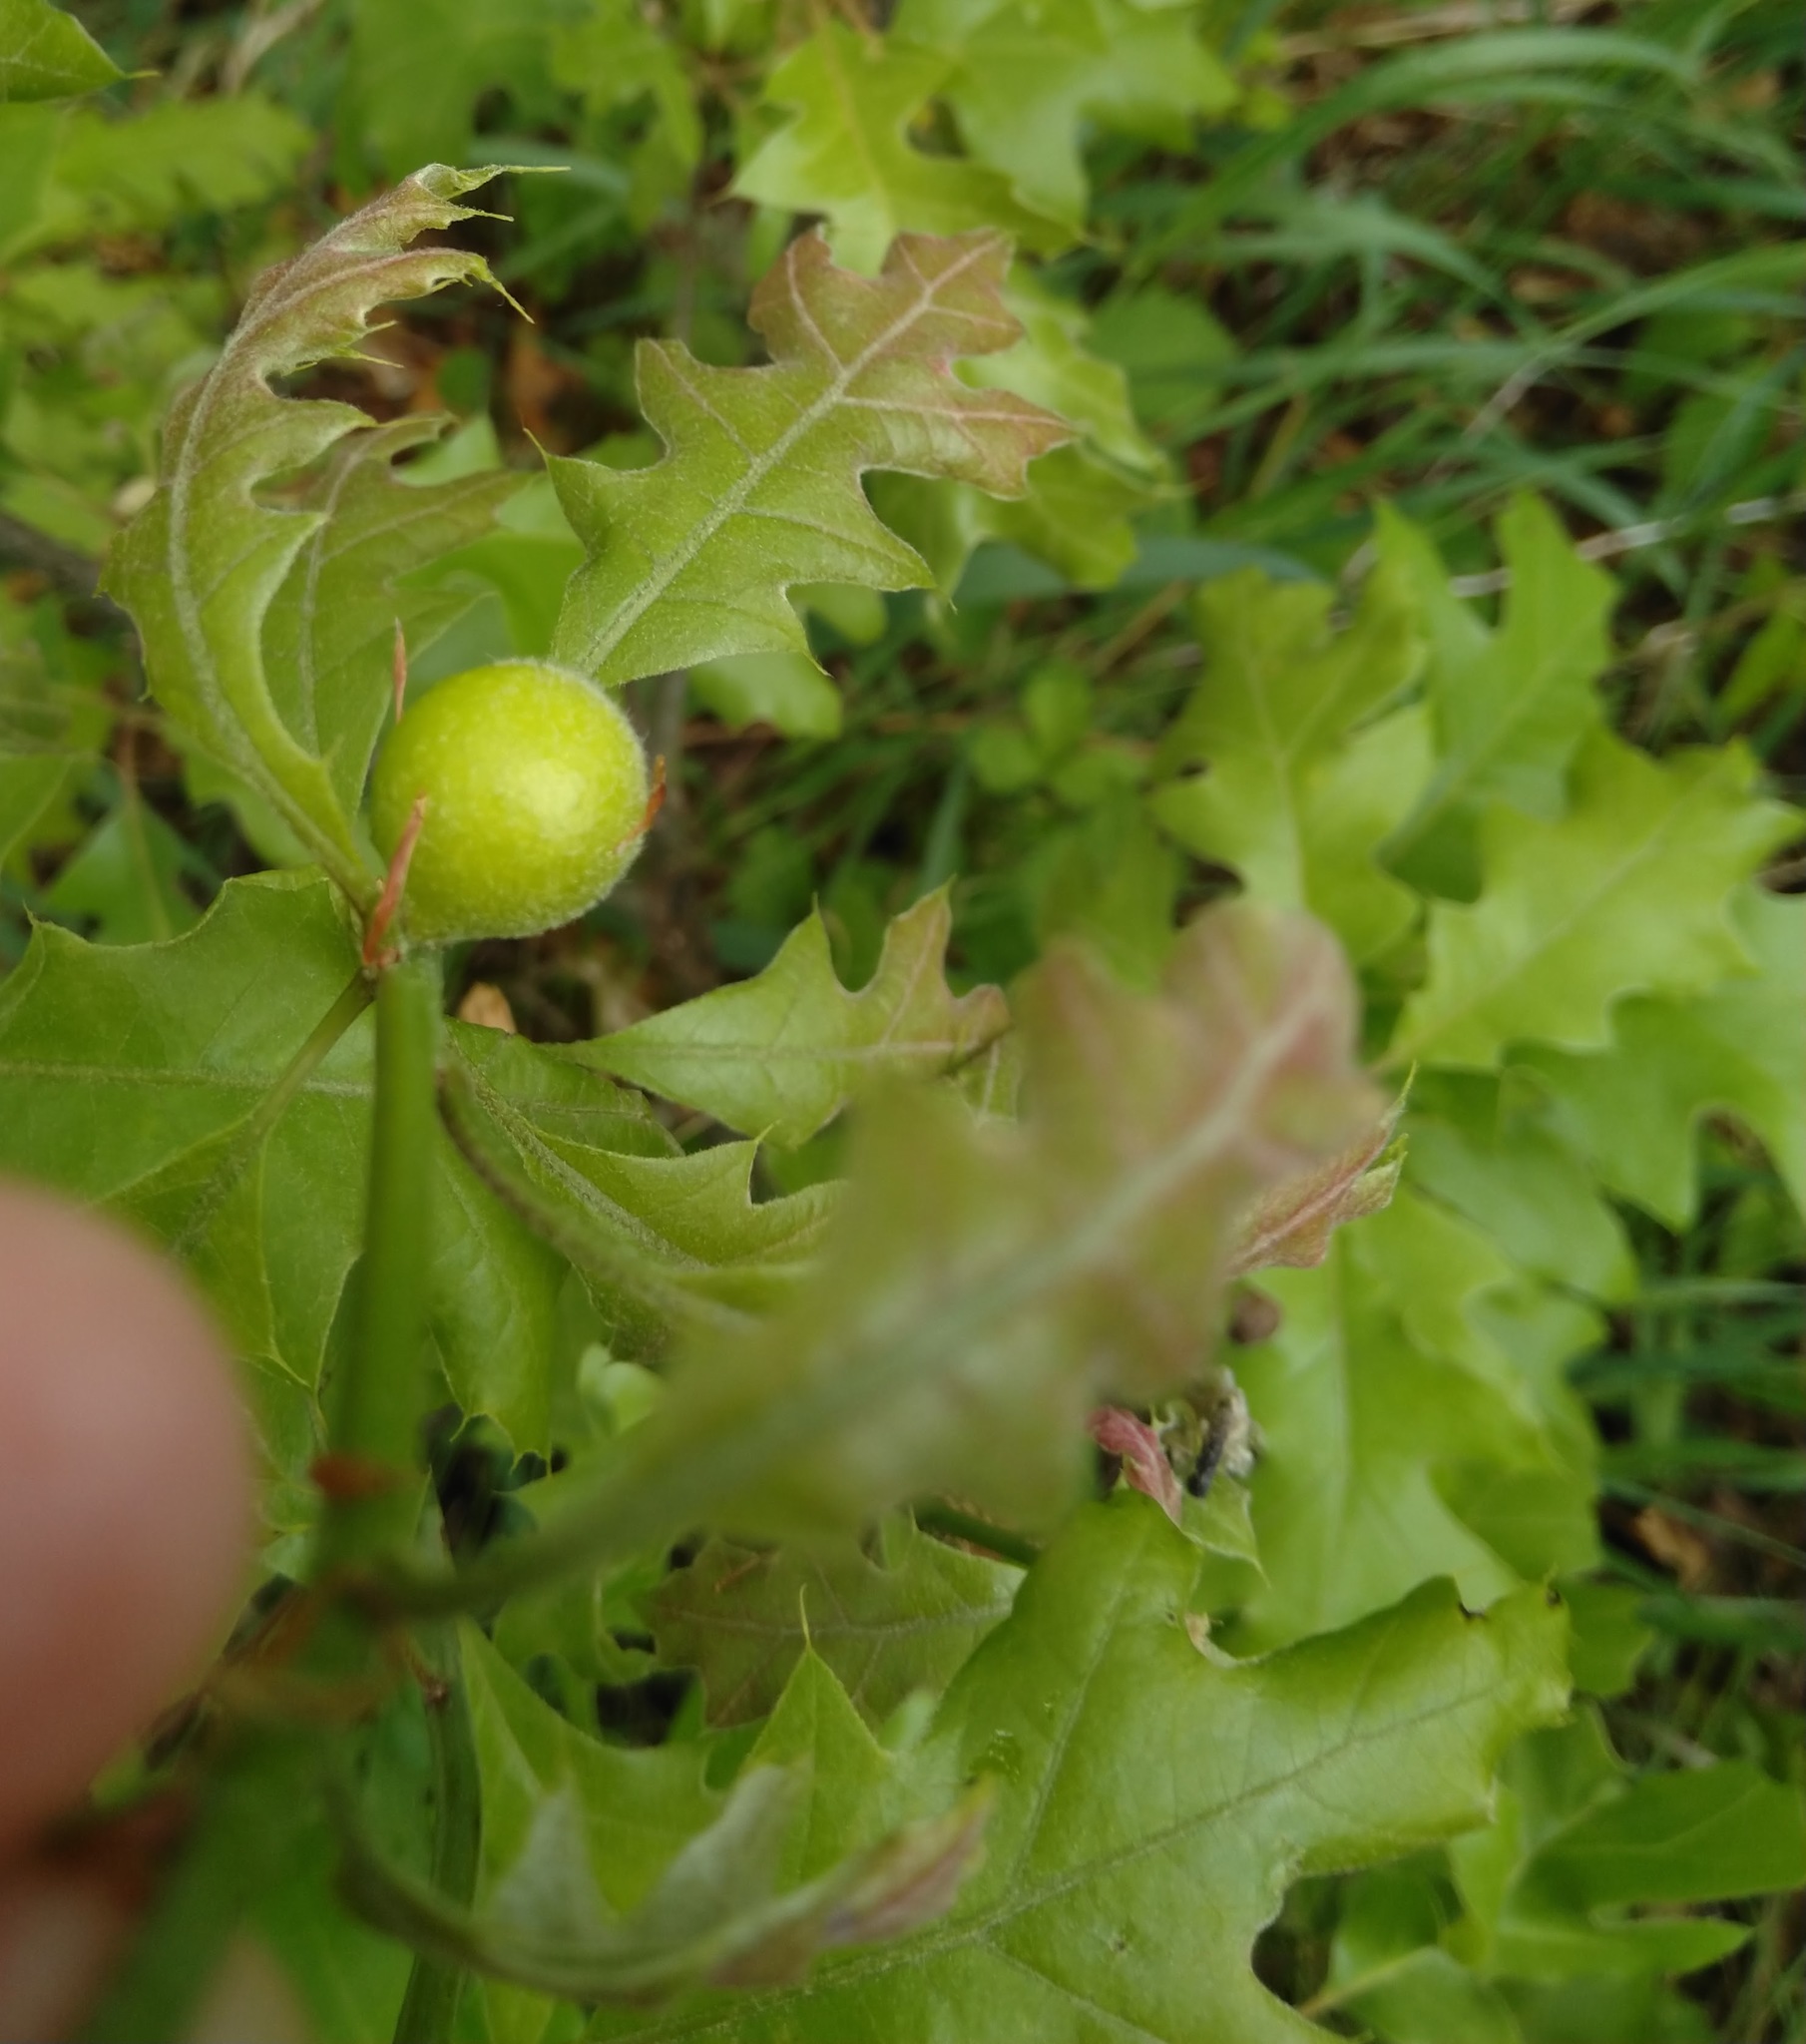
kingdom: Animalia
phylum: Arthropoda
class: Insecta
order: Hymenoptera
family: Cynipidae
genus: Amphibolips
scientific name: Amphibolips
